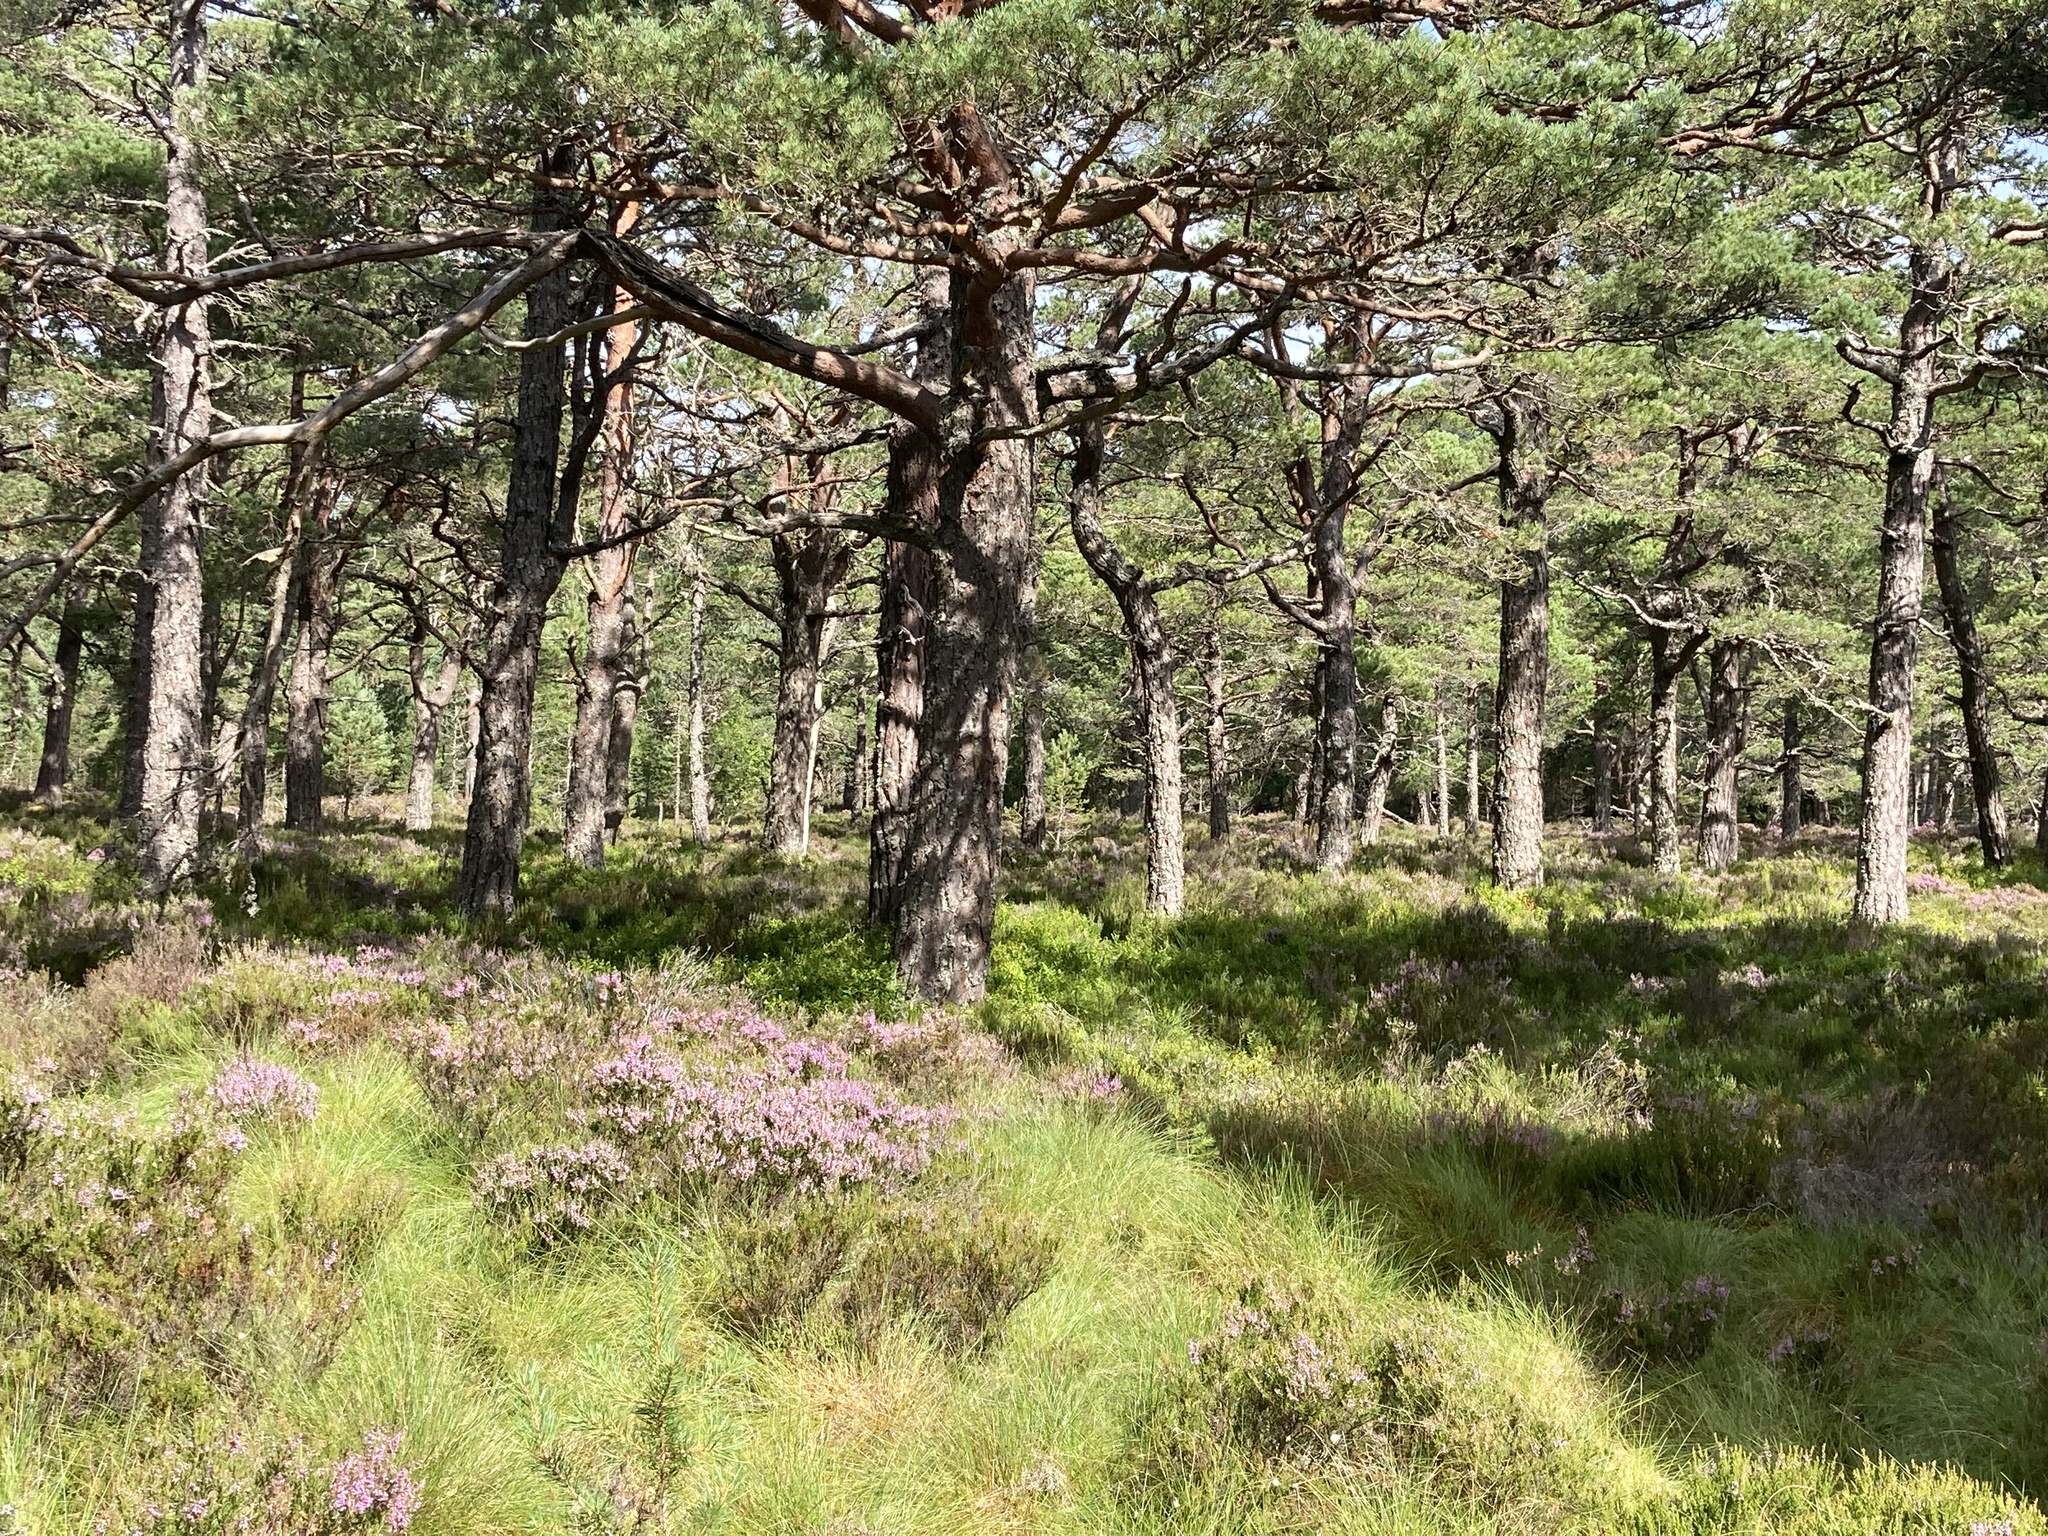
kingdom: Plantae
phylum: Tracheophyta
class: Liliopsida
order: Asparagales
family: Orchidaceae
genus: Goodyera
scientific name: Goodyera repens
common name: Creeping lady's-tresses
